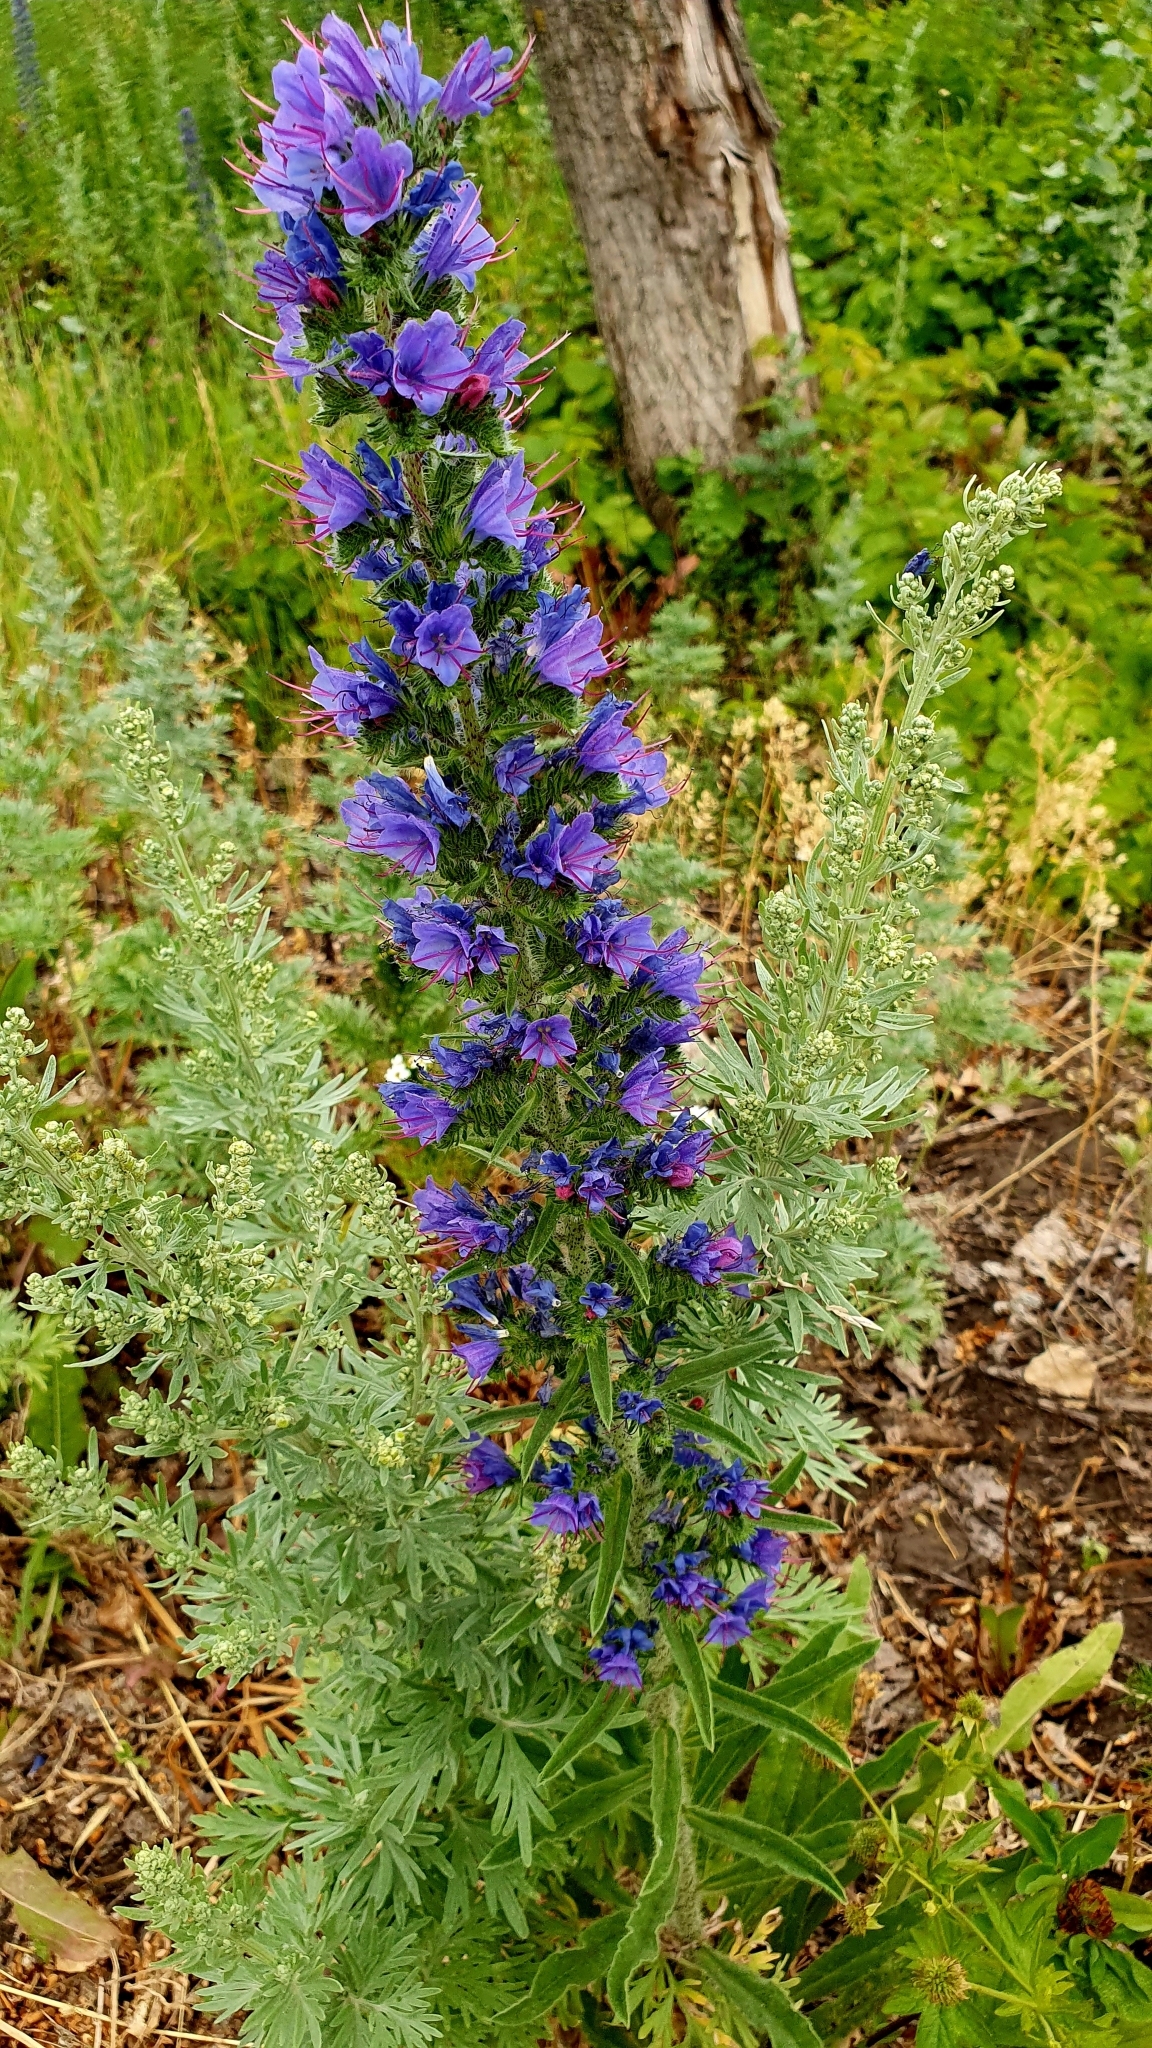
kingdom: Plantae
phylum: Tracheophyta
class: Magnoliopsida
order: Boraginales
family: Boraginaceae
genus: Echium
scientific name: Echium vulgare
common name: Common viper's bugloss
